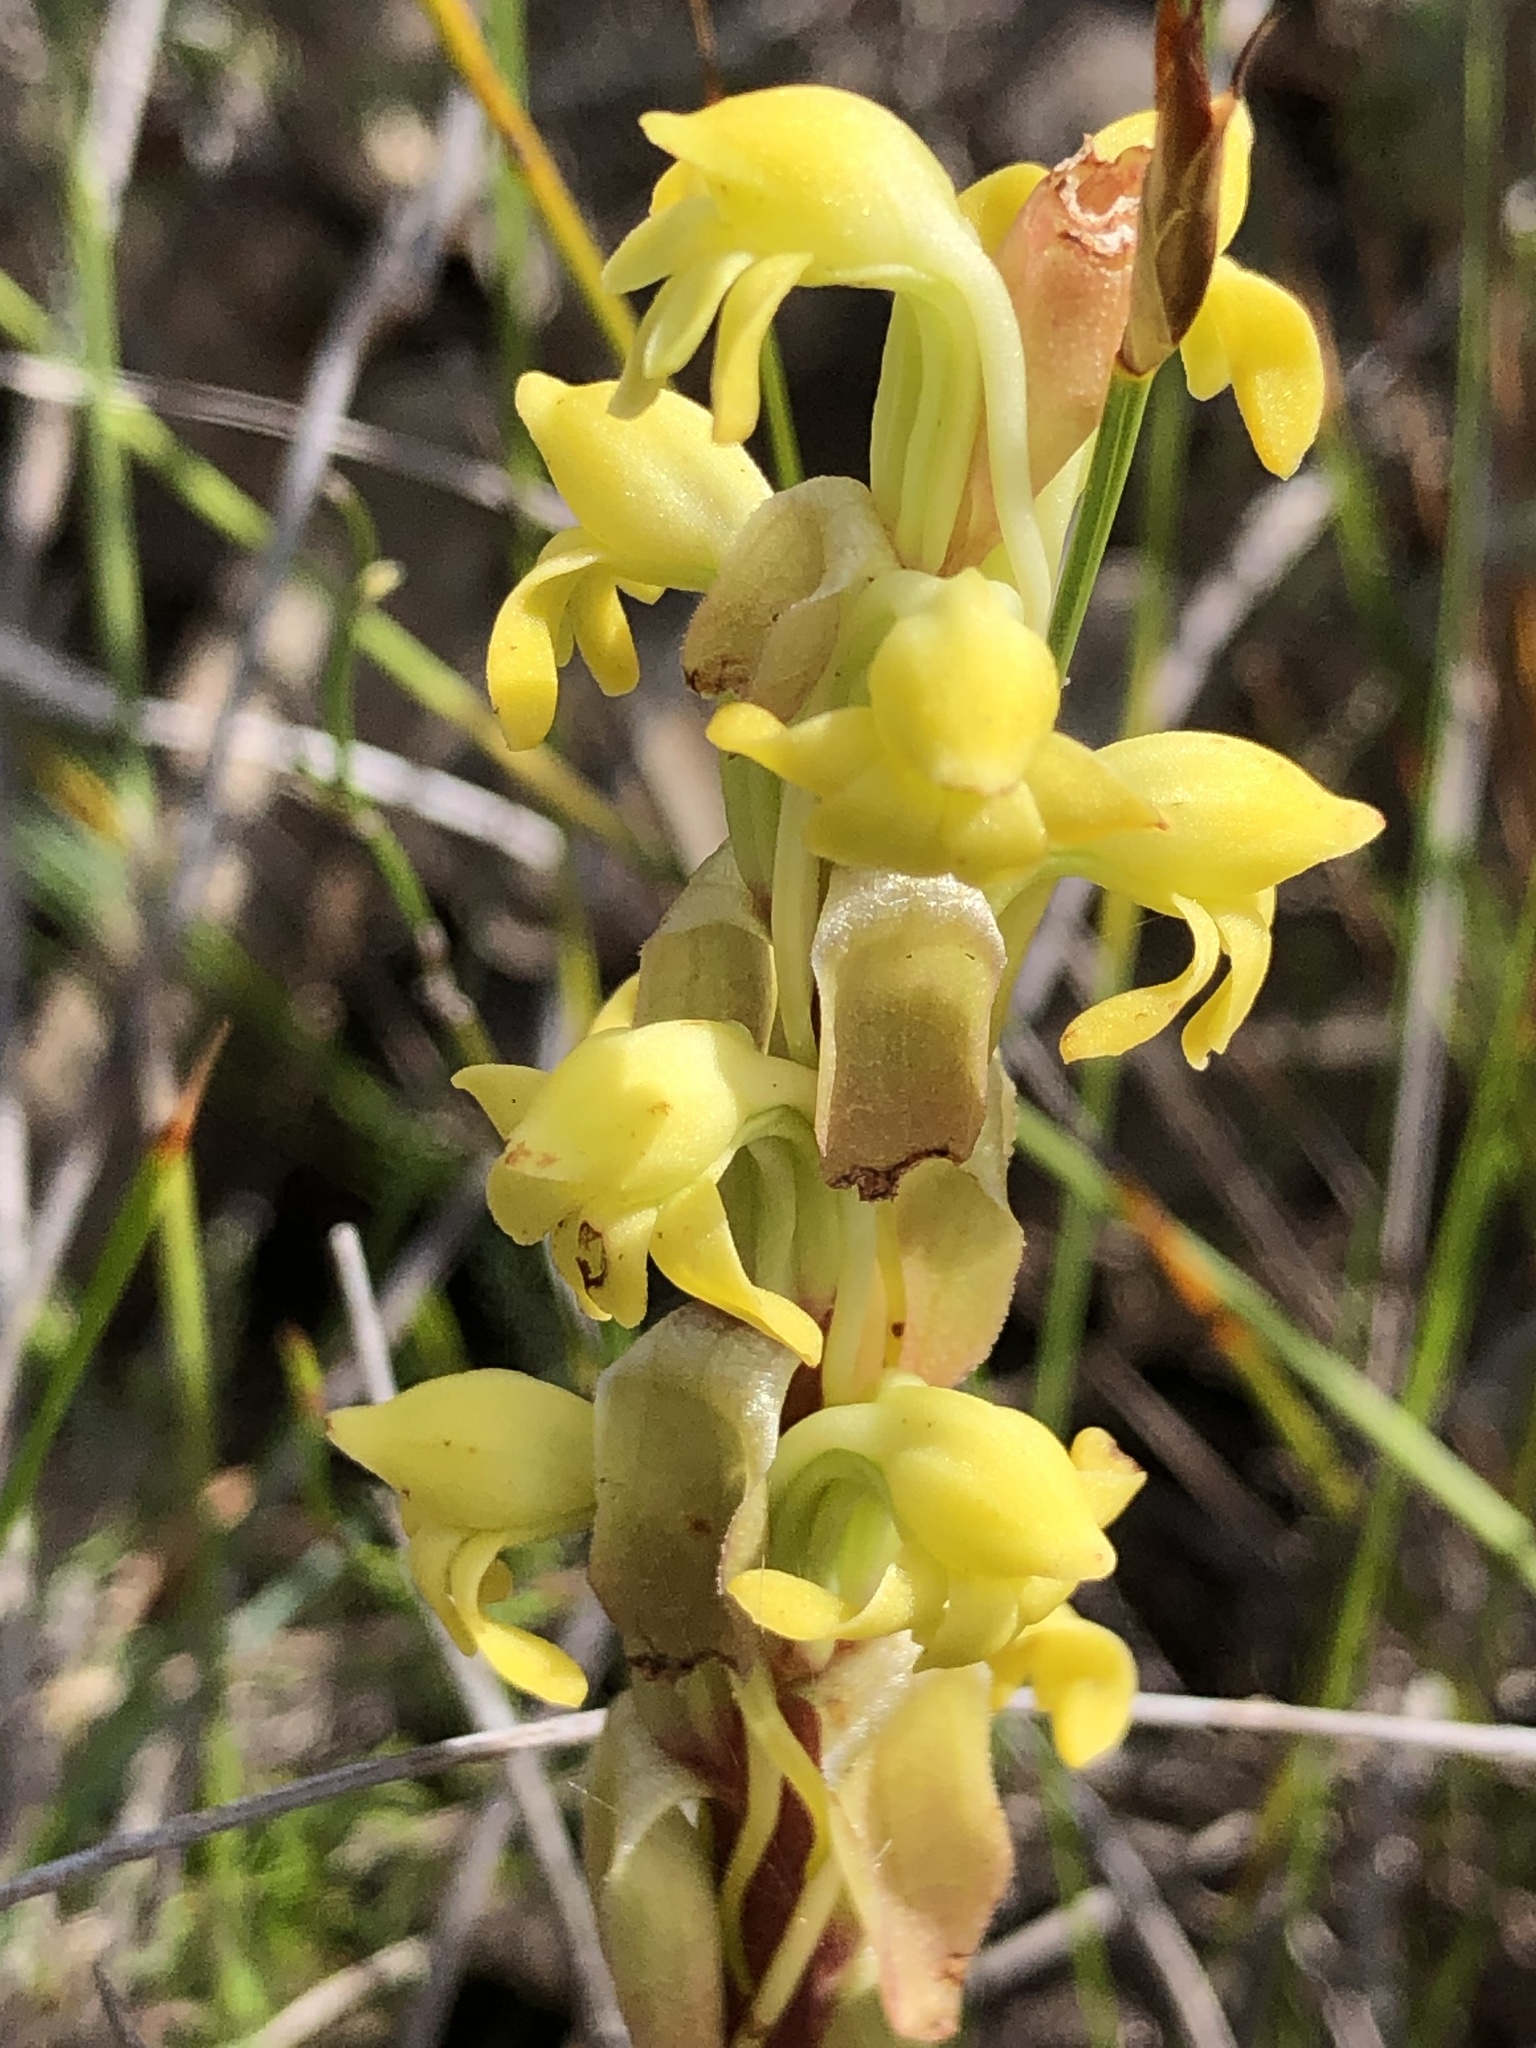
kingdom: Plantae
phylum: Tracheophyta
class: Liliopsida
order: Asparagales
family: Orchidaceae
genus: Satyrium
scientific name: Satyrium bicorne
